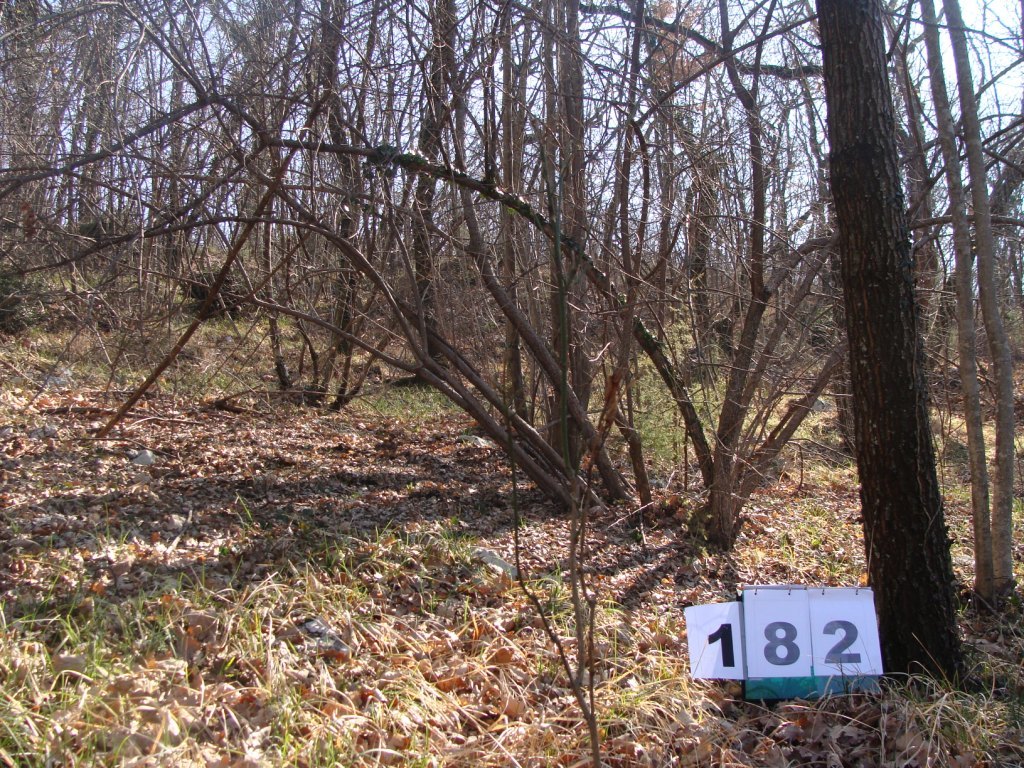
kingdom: Plantae
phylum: Tracheophyta
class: Magnoliopsida
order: Cornales
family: Cornaceae
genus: Cornus
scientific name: Cornus mas
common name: Cornelian-cherry
